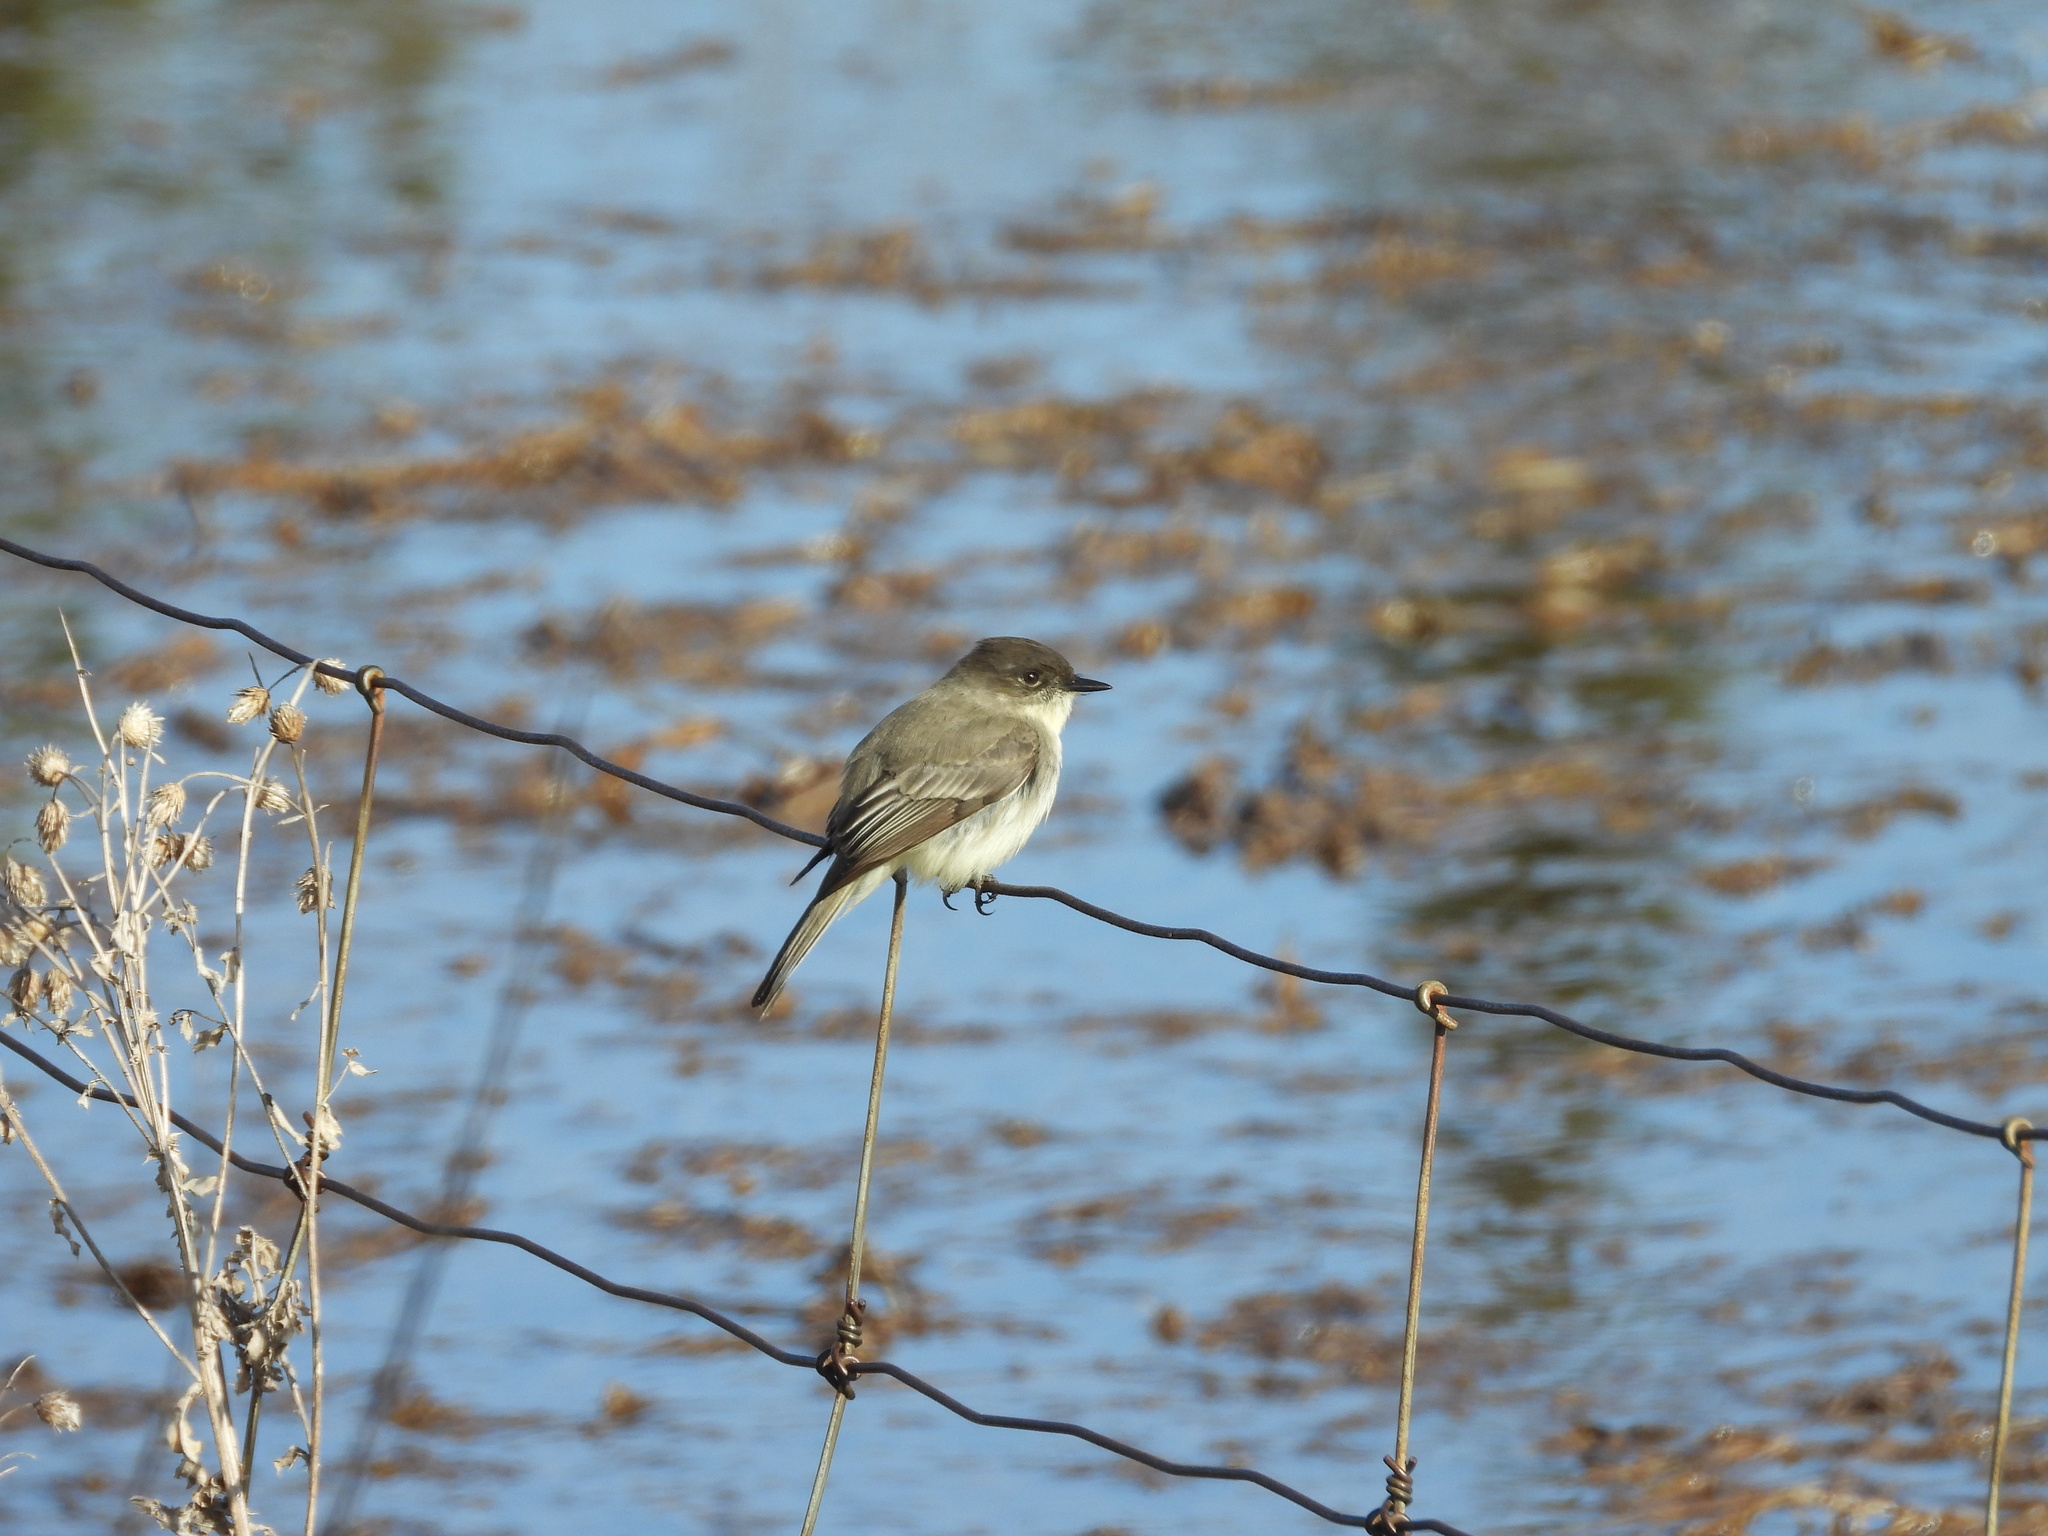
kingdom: Animalia
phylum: Chordata
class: Aves
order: Passeriformes
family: Tyrannidae
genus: Sayornis
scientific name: Sayornis phoebe
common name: Eastern phoebe
